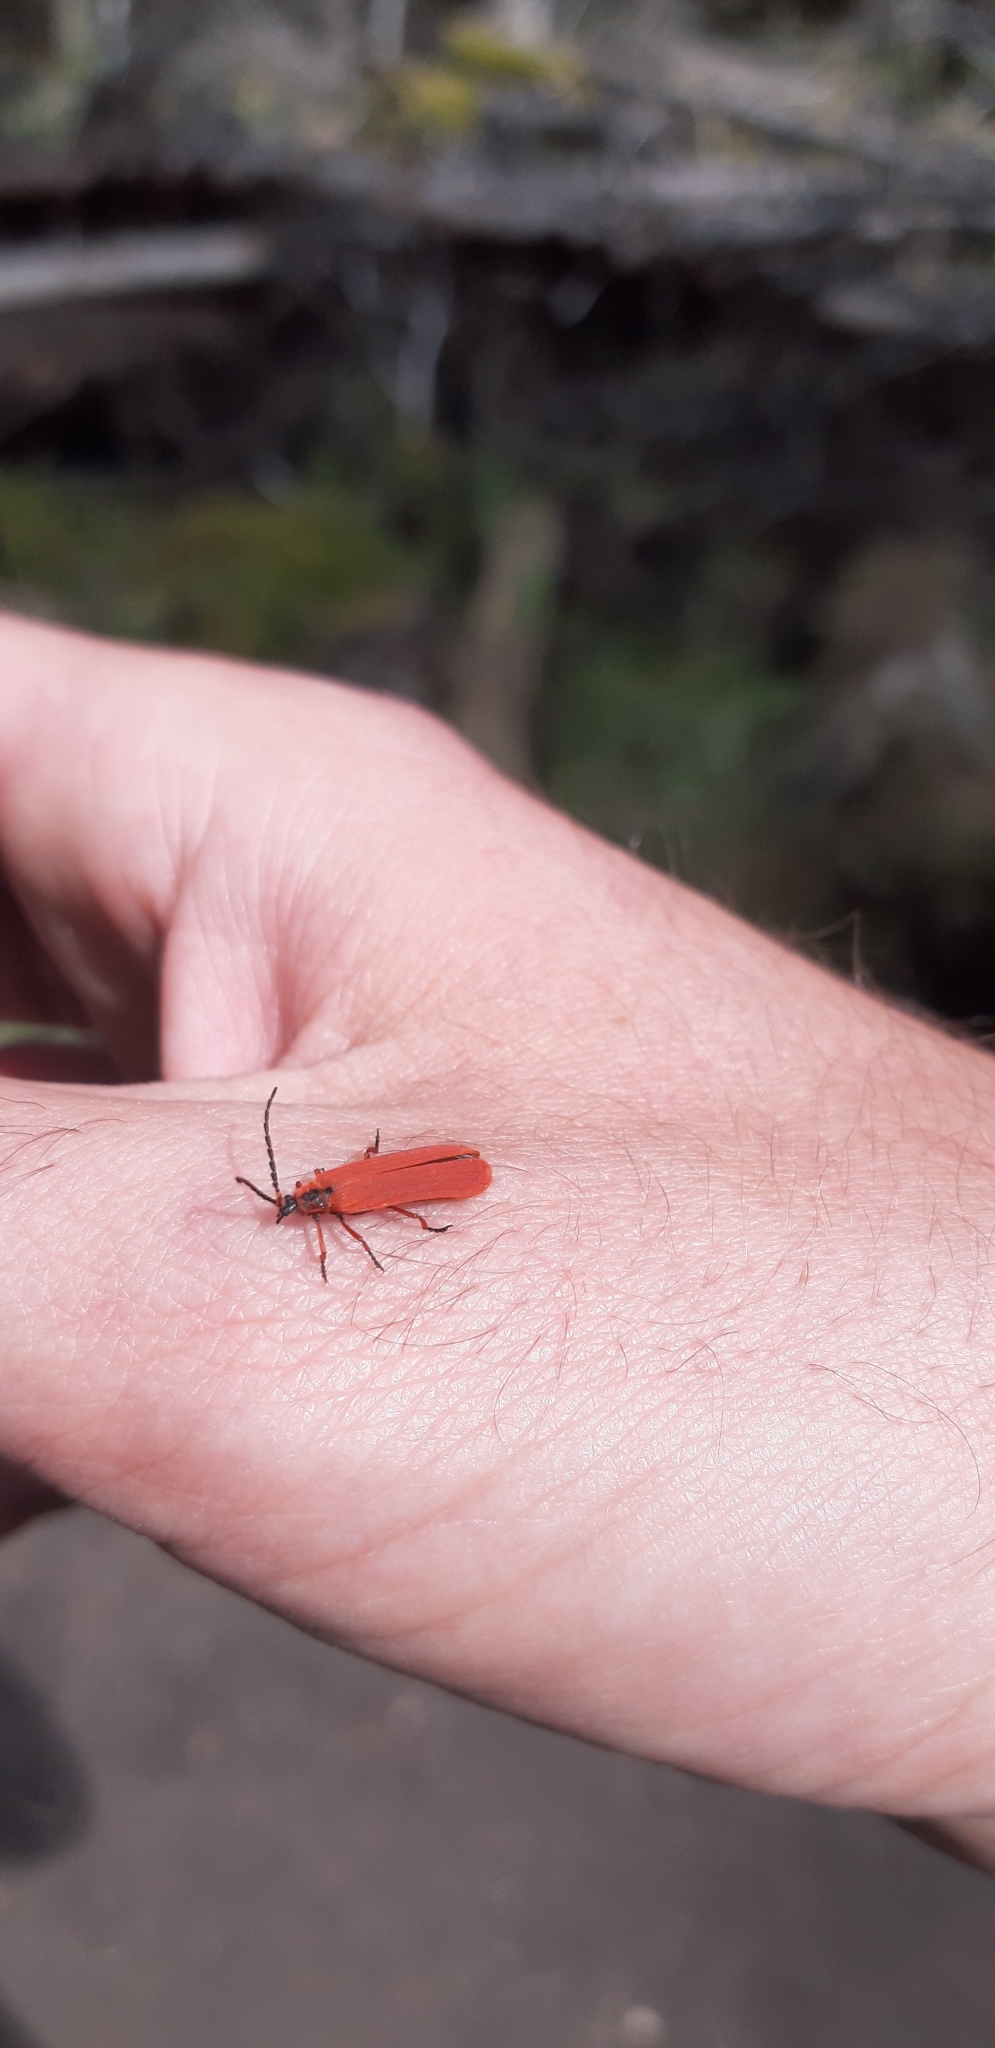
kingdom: Animalia
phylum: Arthropoda
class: Insecta
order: Coleoptera
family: Lycidae
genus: Dictyoptera
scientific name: Dictyoptera simplicipes
